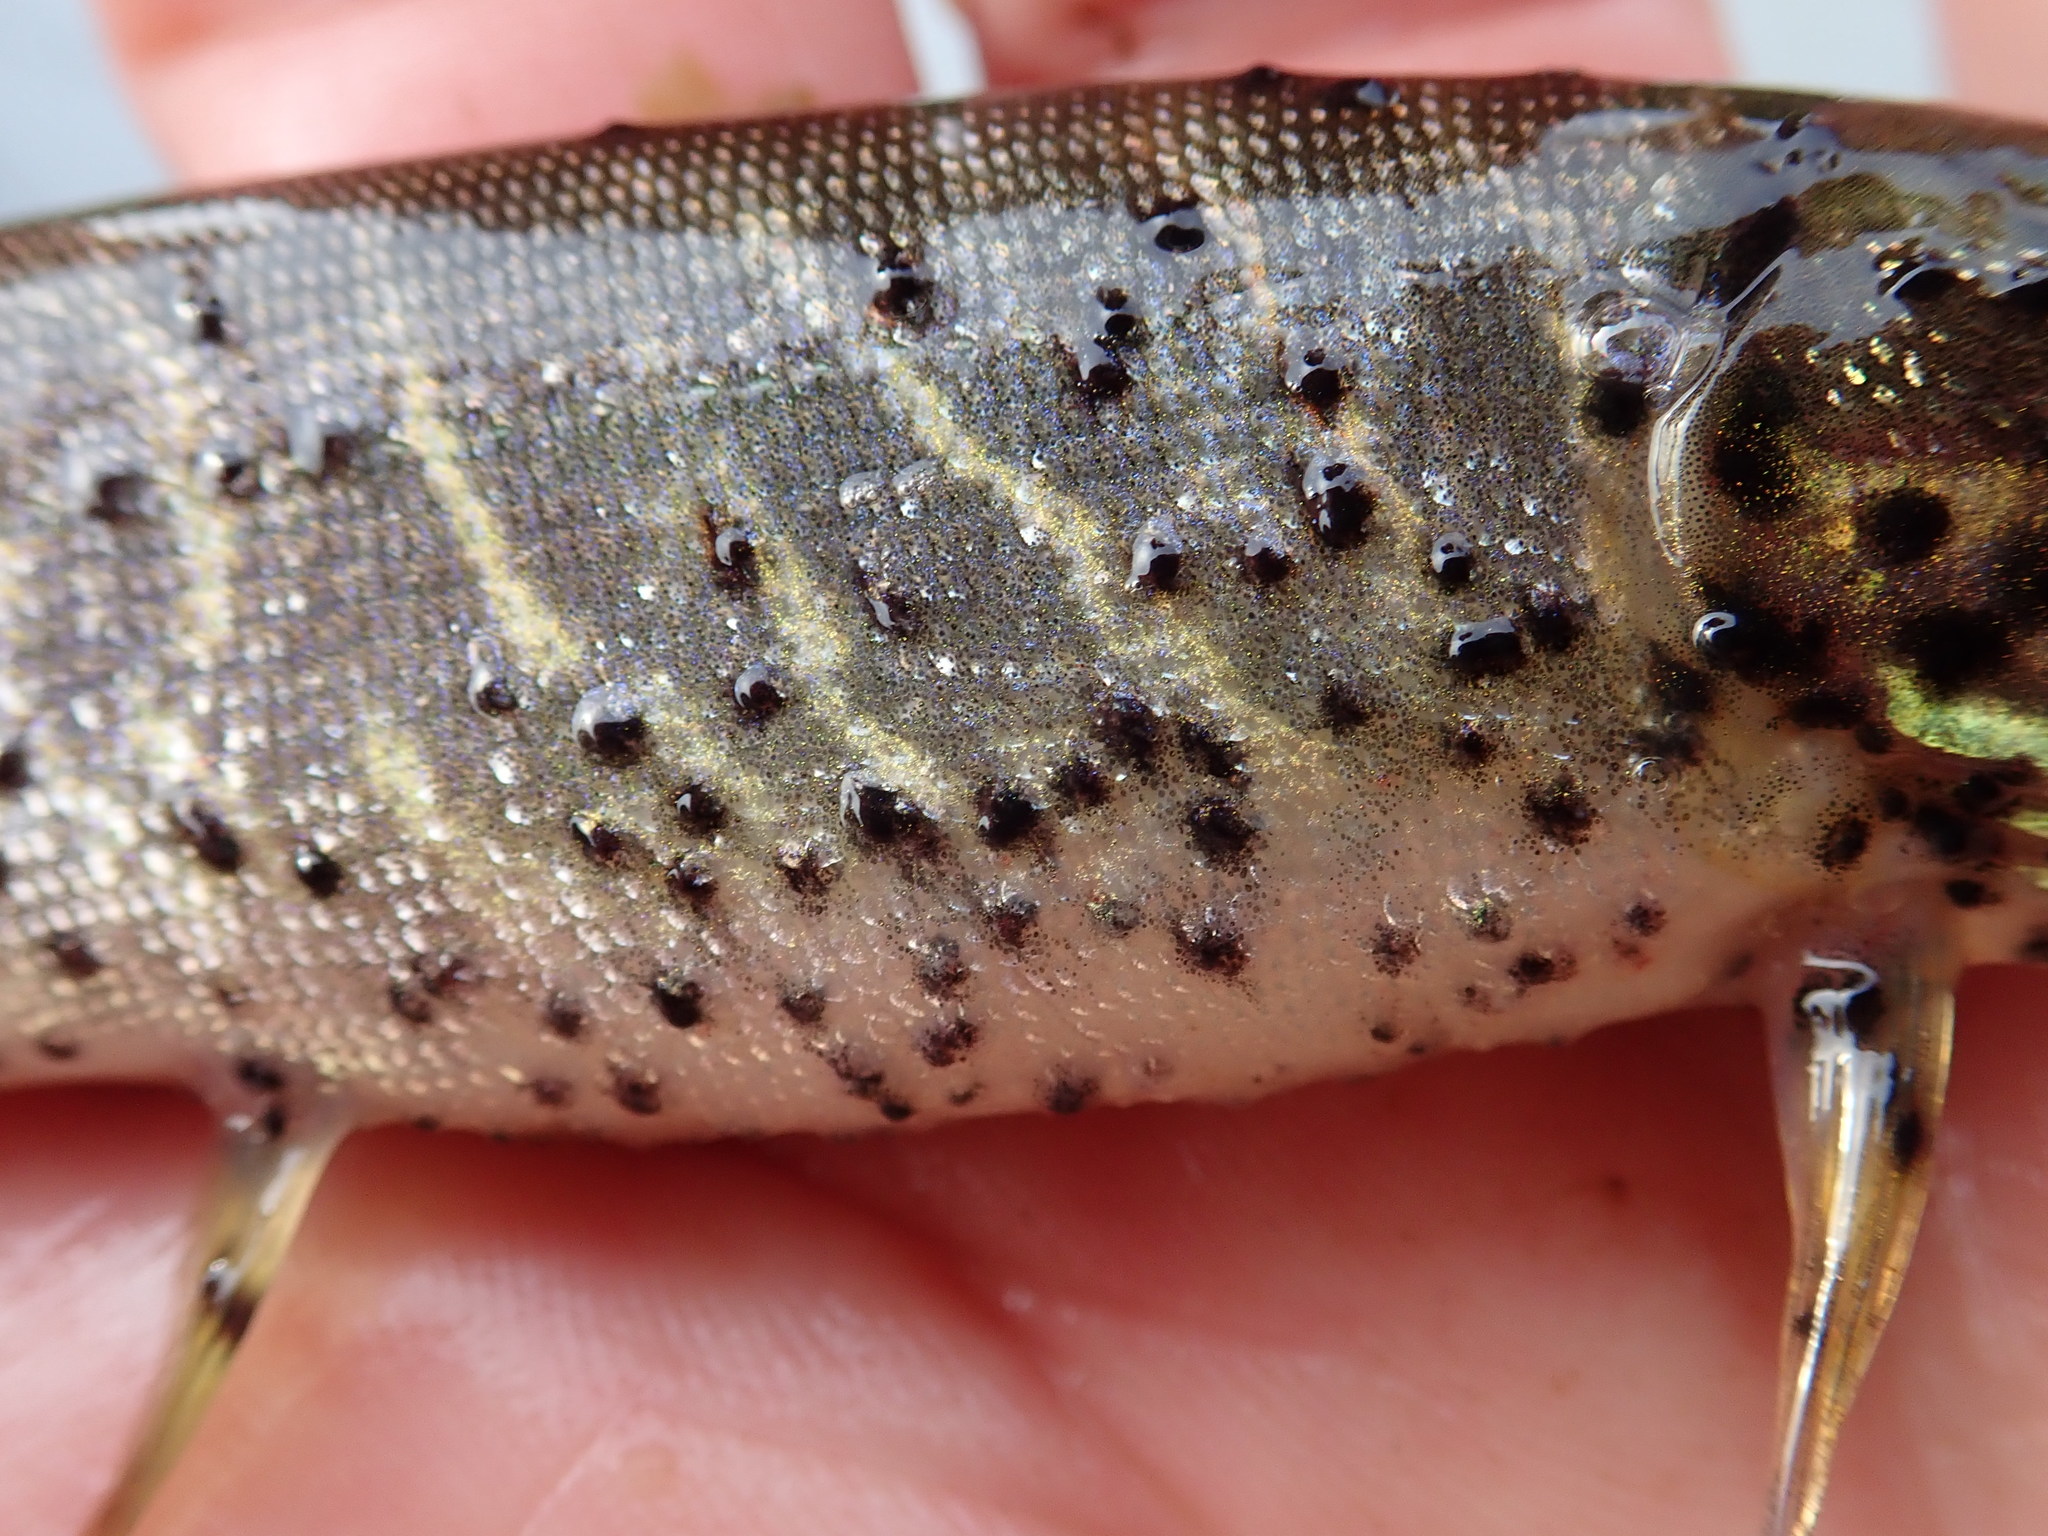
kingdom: Animalia
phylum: Platyhelminthes
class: Trematoda
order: Diplostomida
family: Diplostomidae
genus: Neascus
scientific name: Neascus
